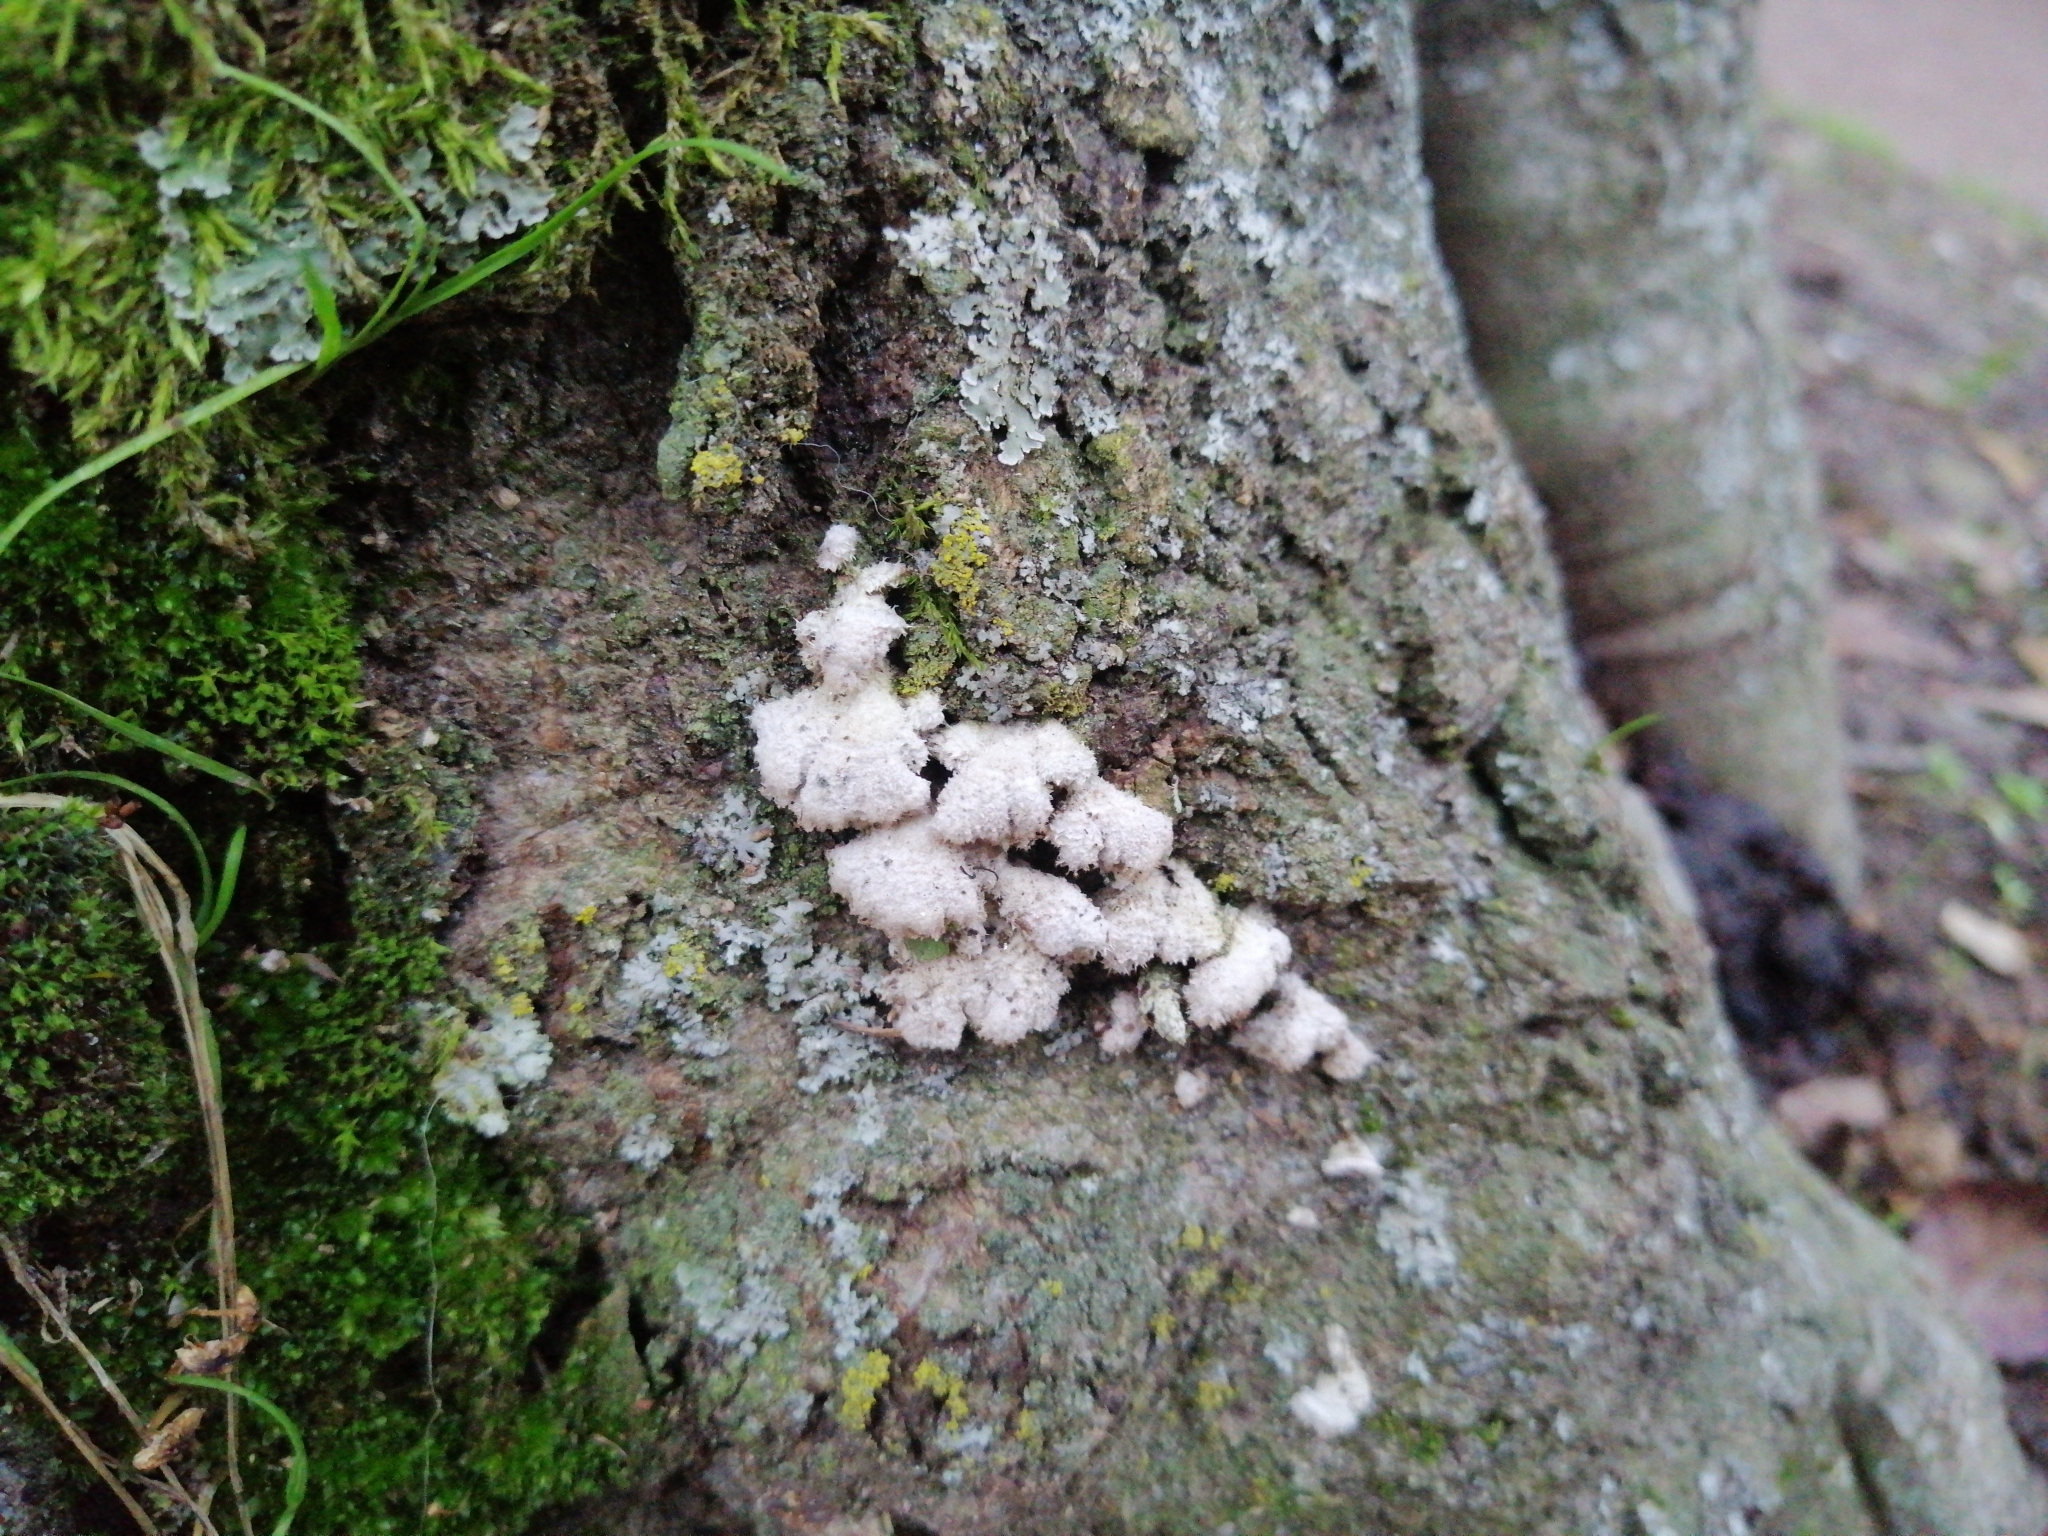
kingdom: Fungi
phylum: Basidiomycota
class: Agaricomycetes
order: Agaricales
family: Schizophyllaceae
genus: Schizophyllum
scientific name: Schizophyllum commune
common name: Common porecrust
